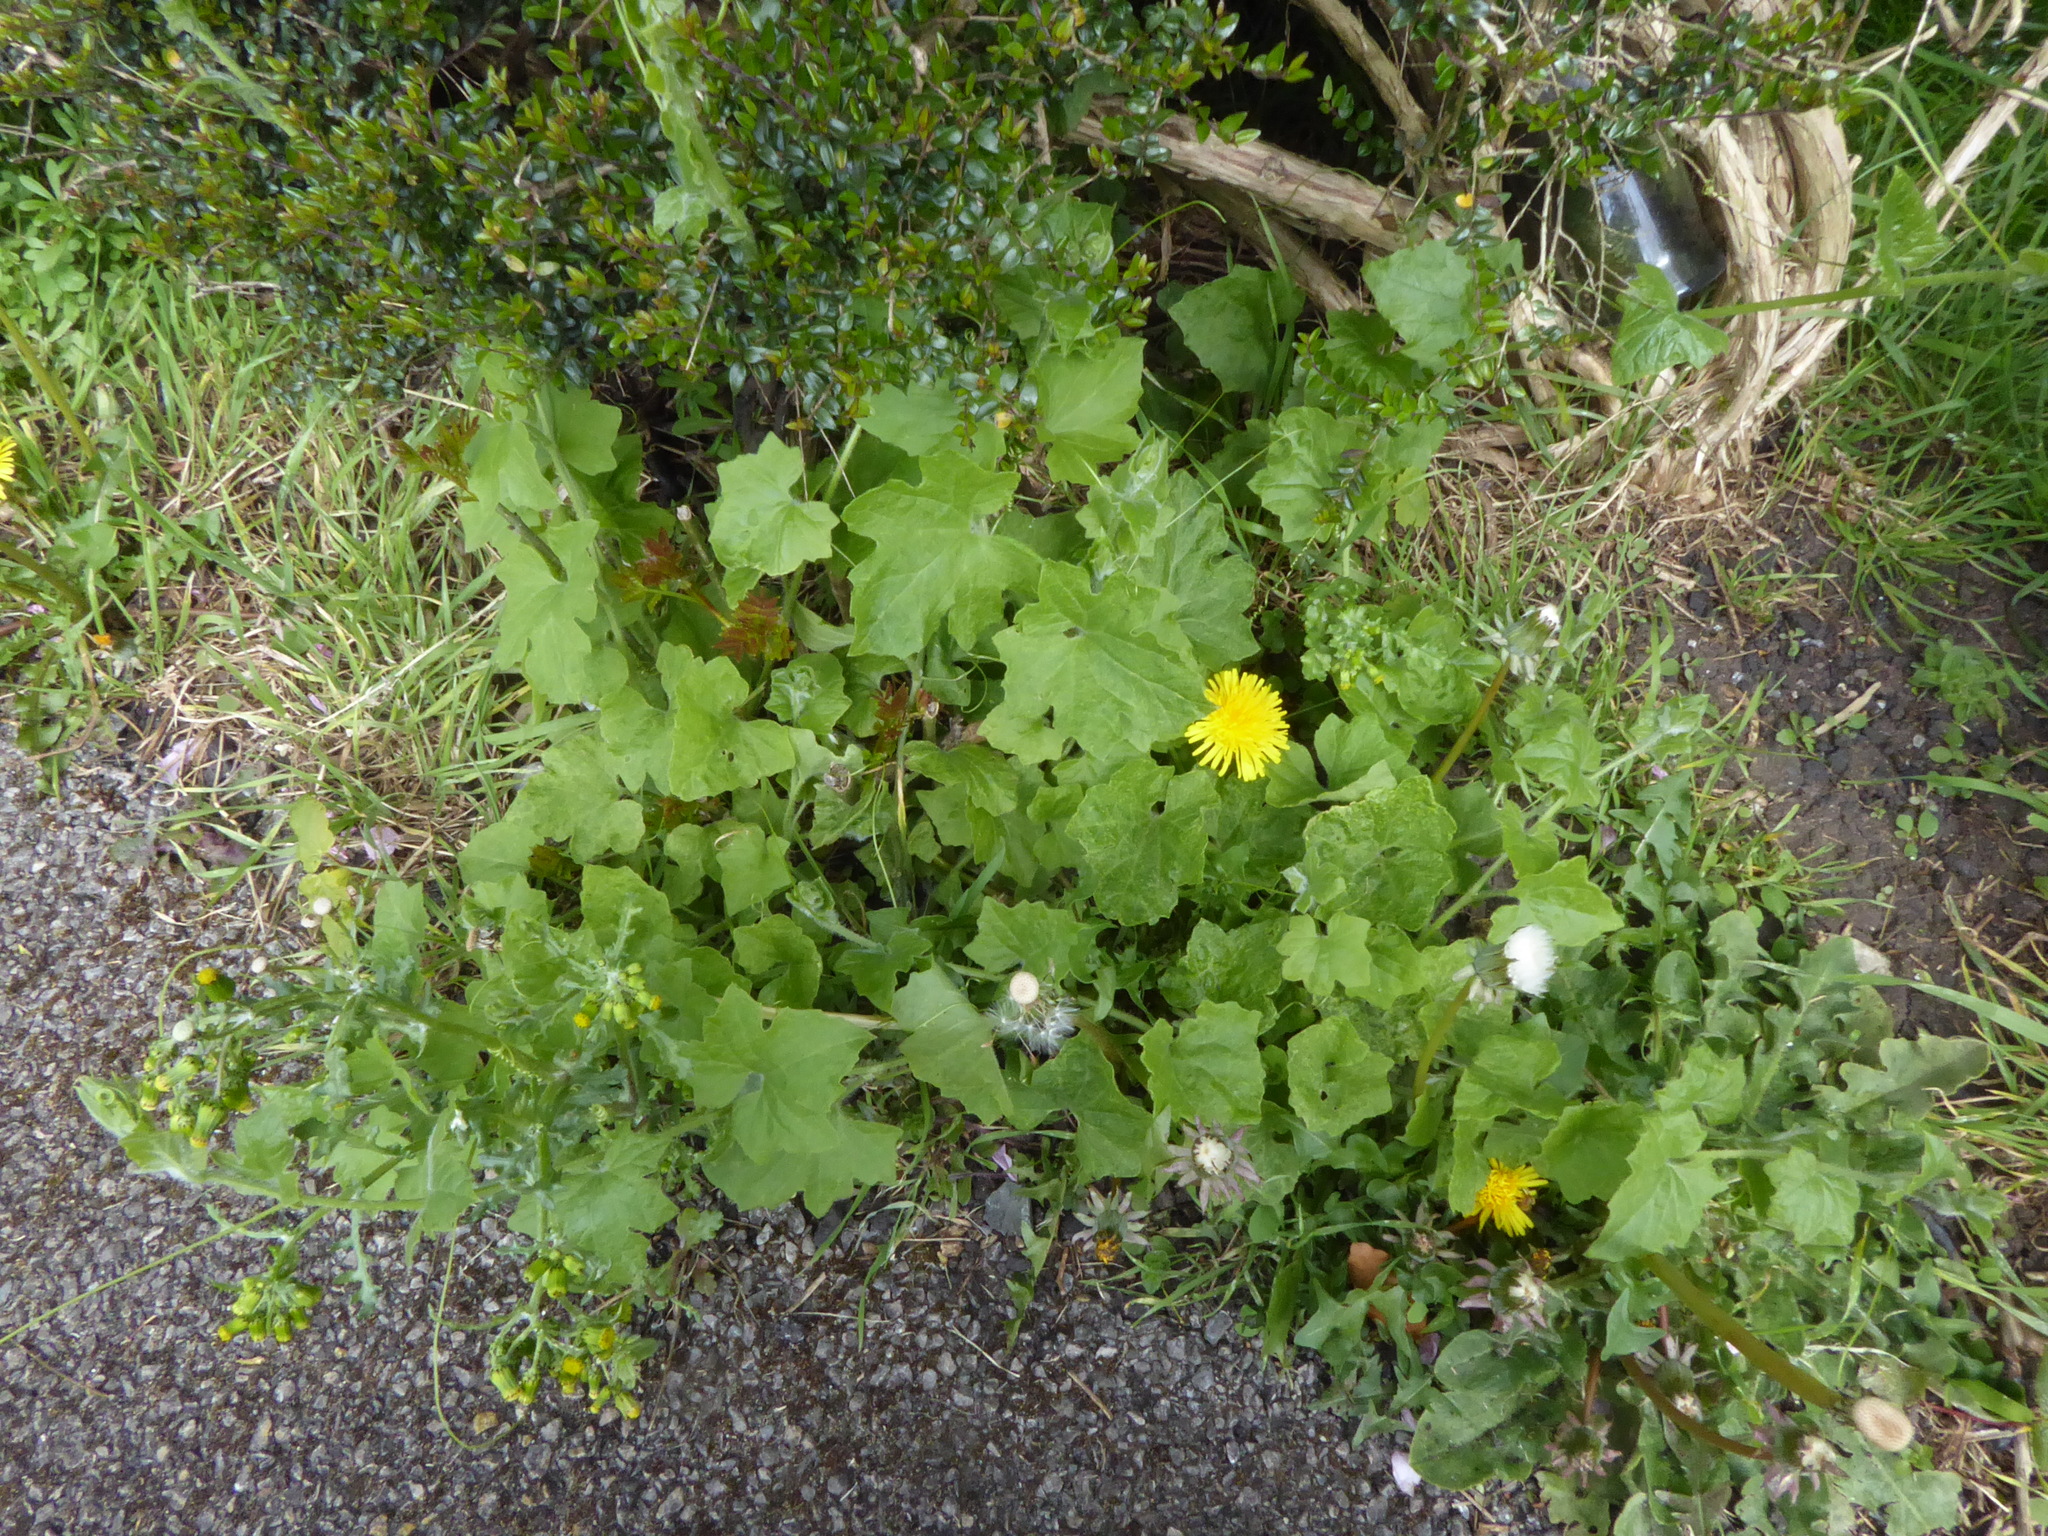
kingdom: Plantae
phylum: Tracheophyta
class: Magnoliopsida
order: Cucurbitales
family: Cucurbitaceae
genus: Bryonia
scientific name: Bryonia cretica
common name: Cretan bryony
